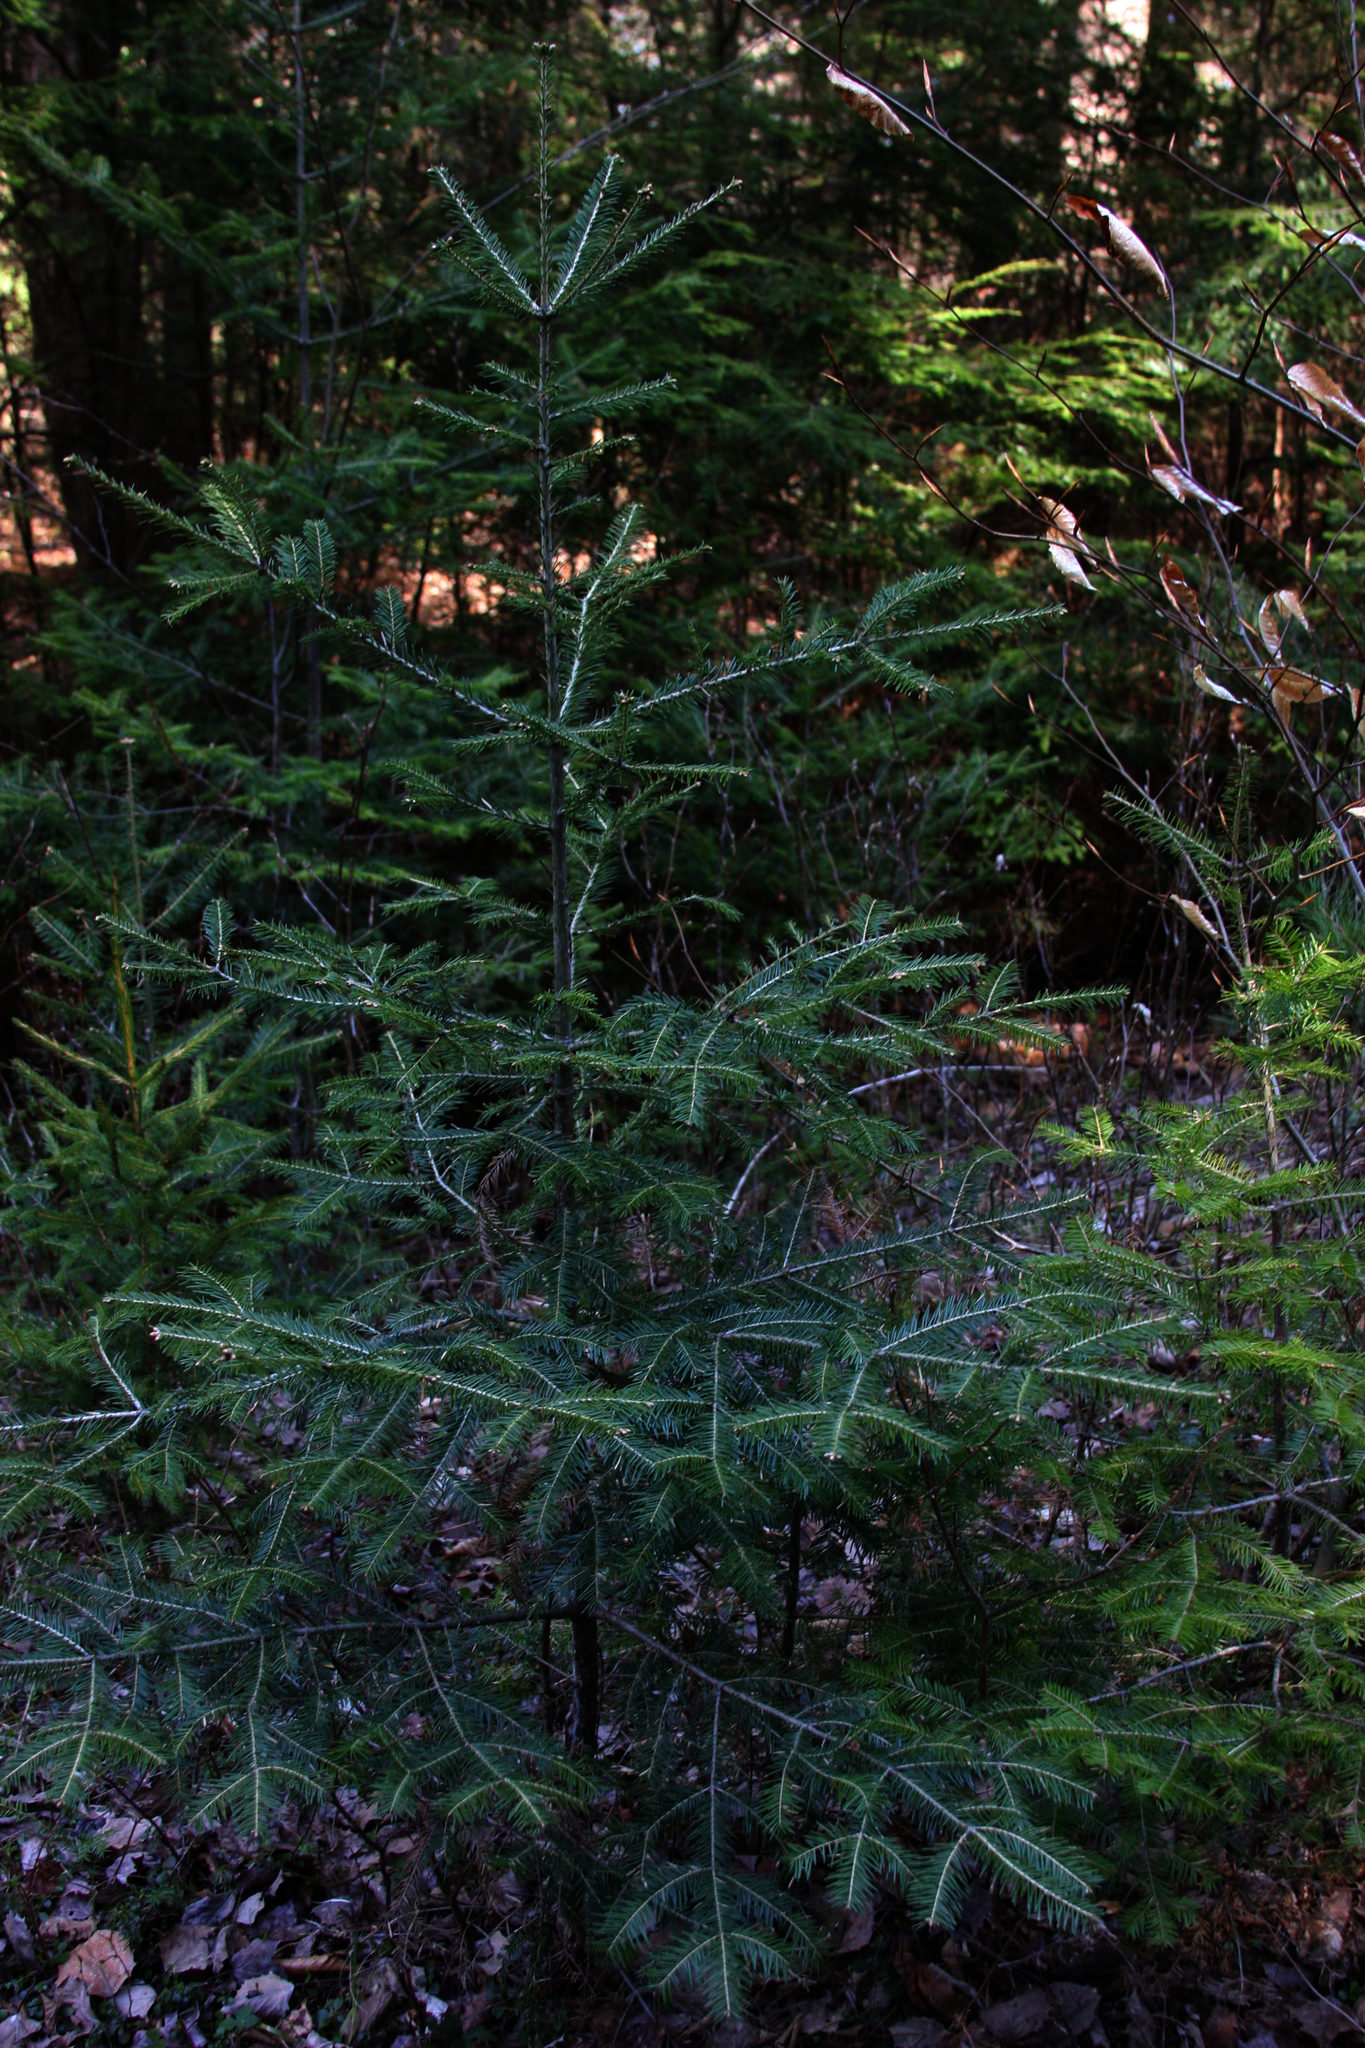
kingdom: Plantae
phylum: Tracheophyta
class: Pinopsida
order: Pinales
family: Pinaceae
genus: Abies
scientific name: Abies balsamea
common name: Balsam fir
